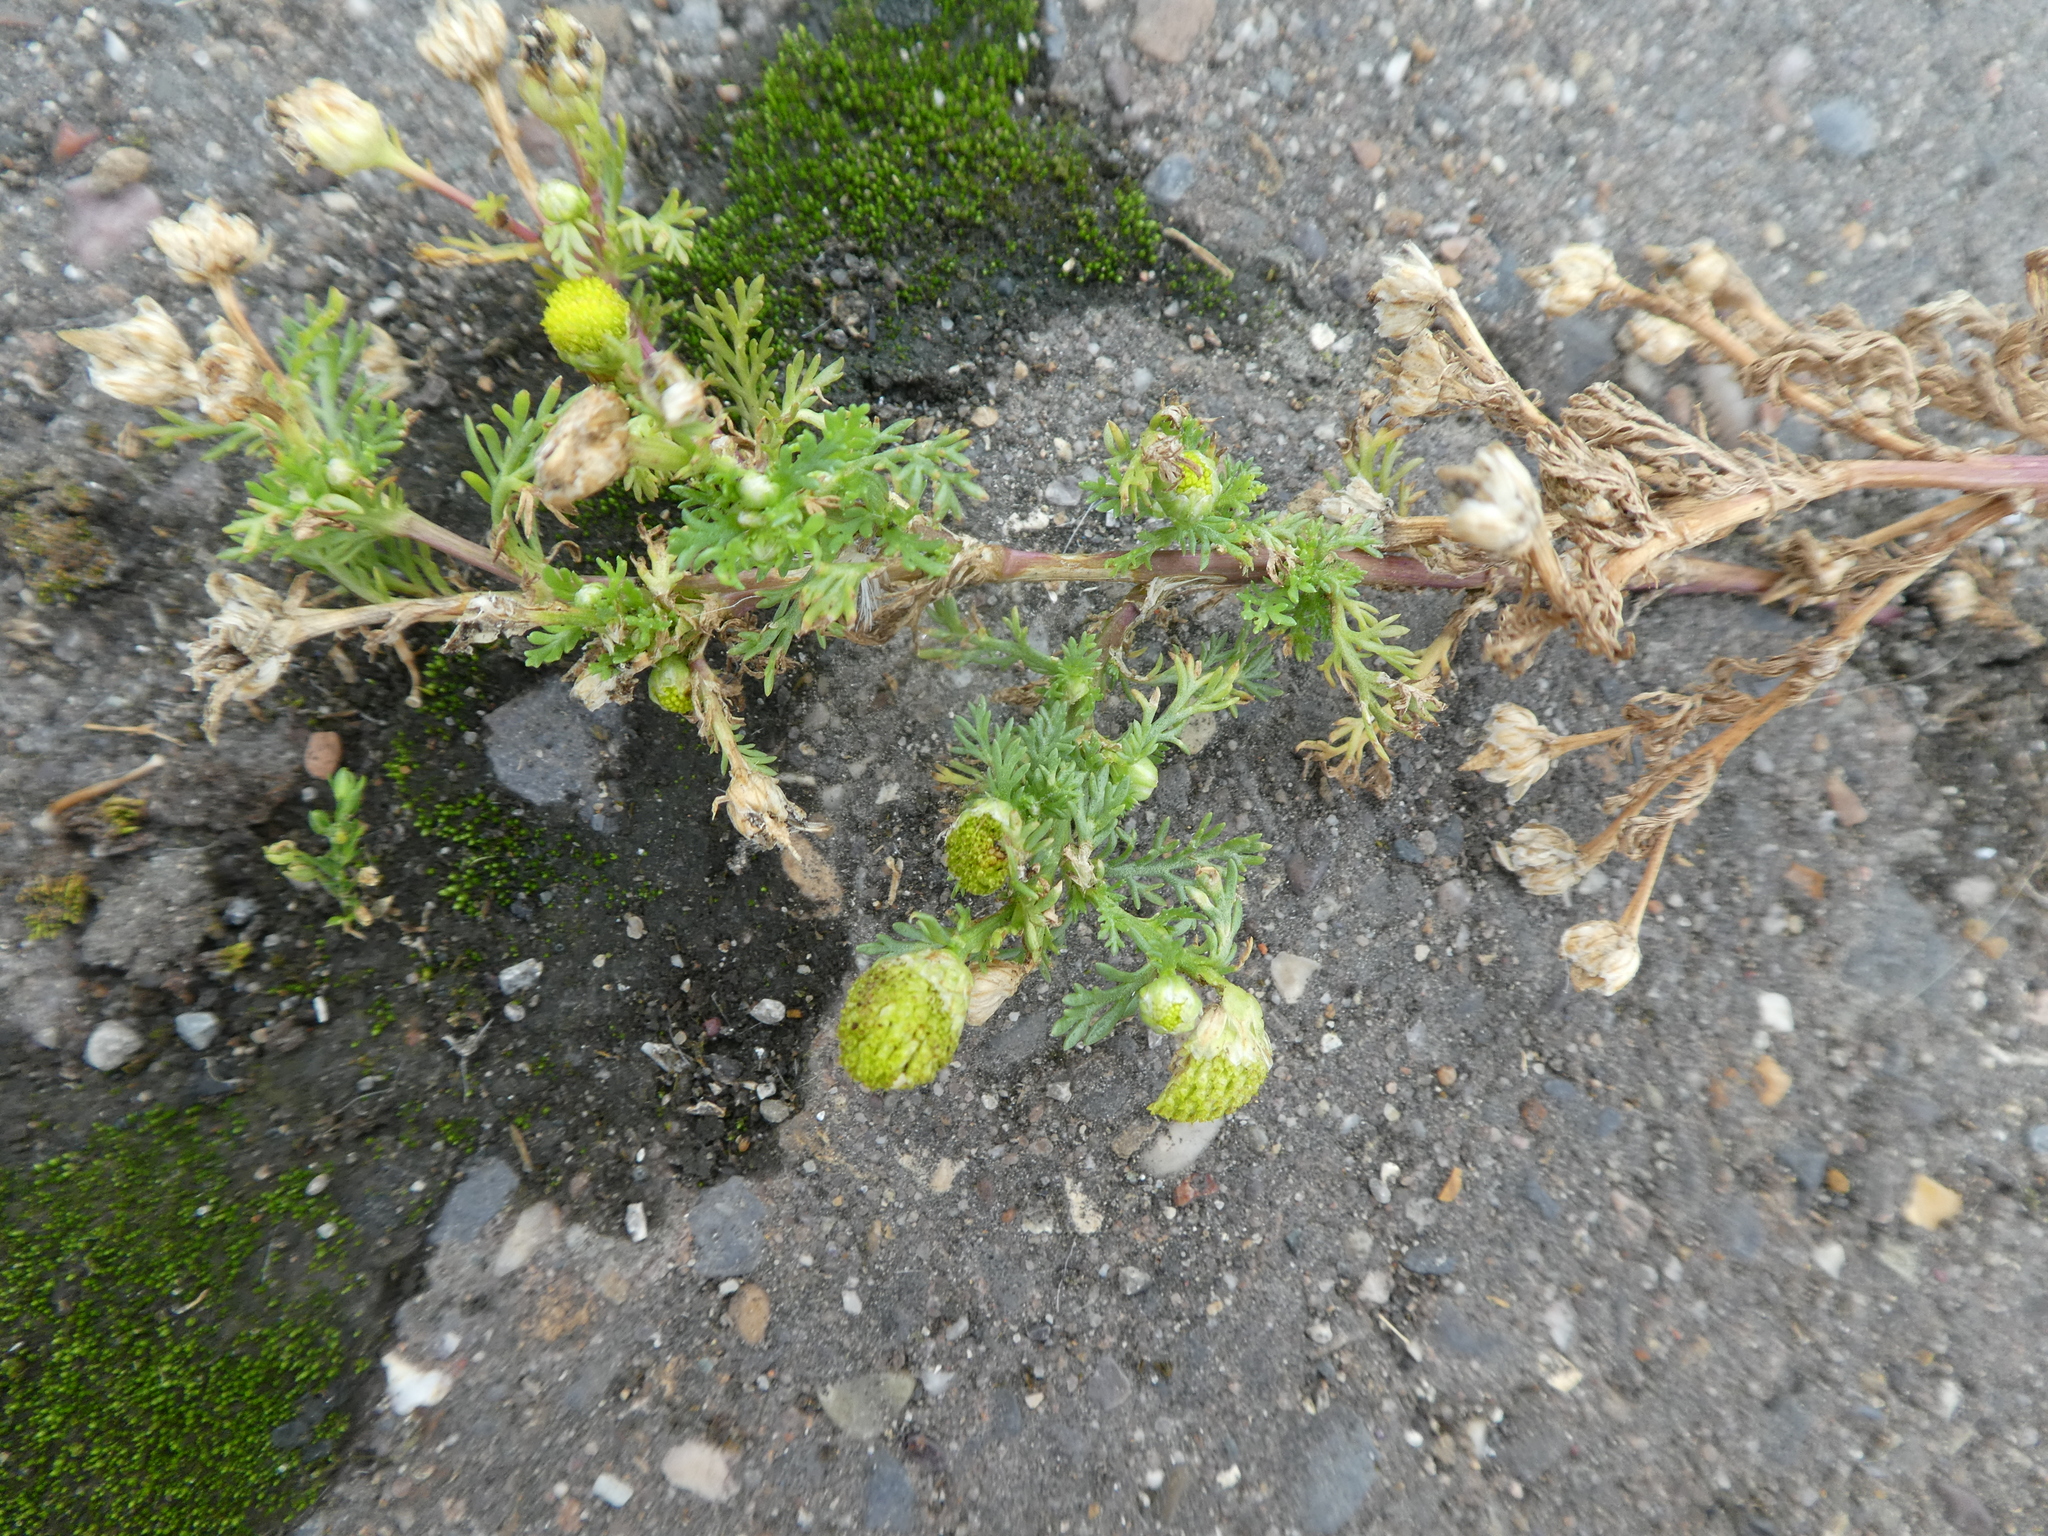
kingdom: Plantae
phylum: Tracheophyta
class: Magnoliopsida
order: Asterales
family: Asteraceae
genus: Matricaria
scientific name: Matricaria discoidea
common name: Disc mayweed
